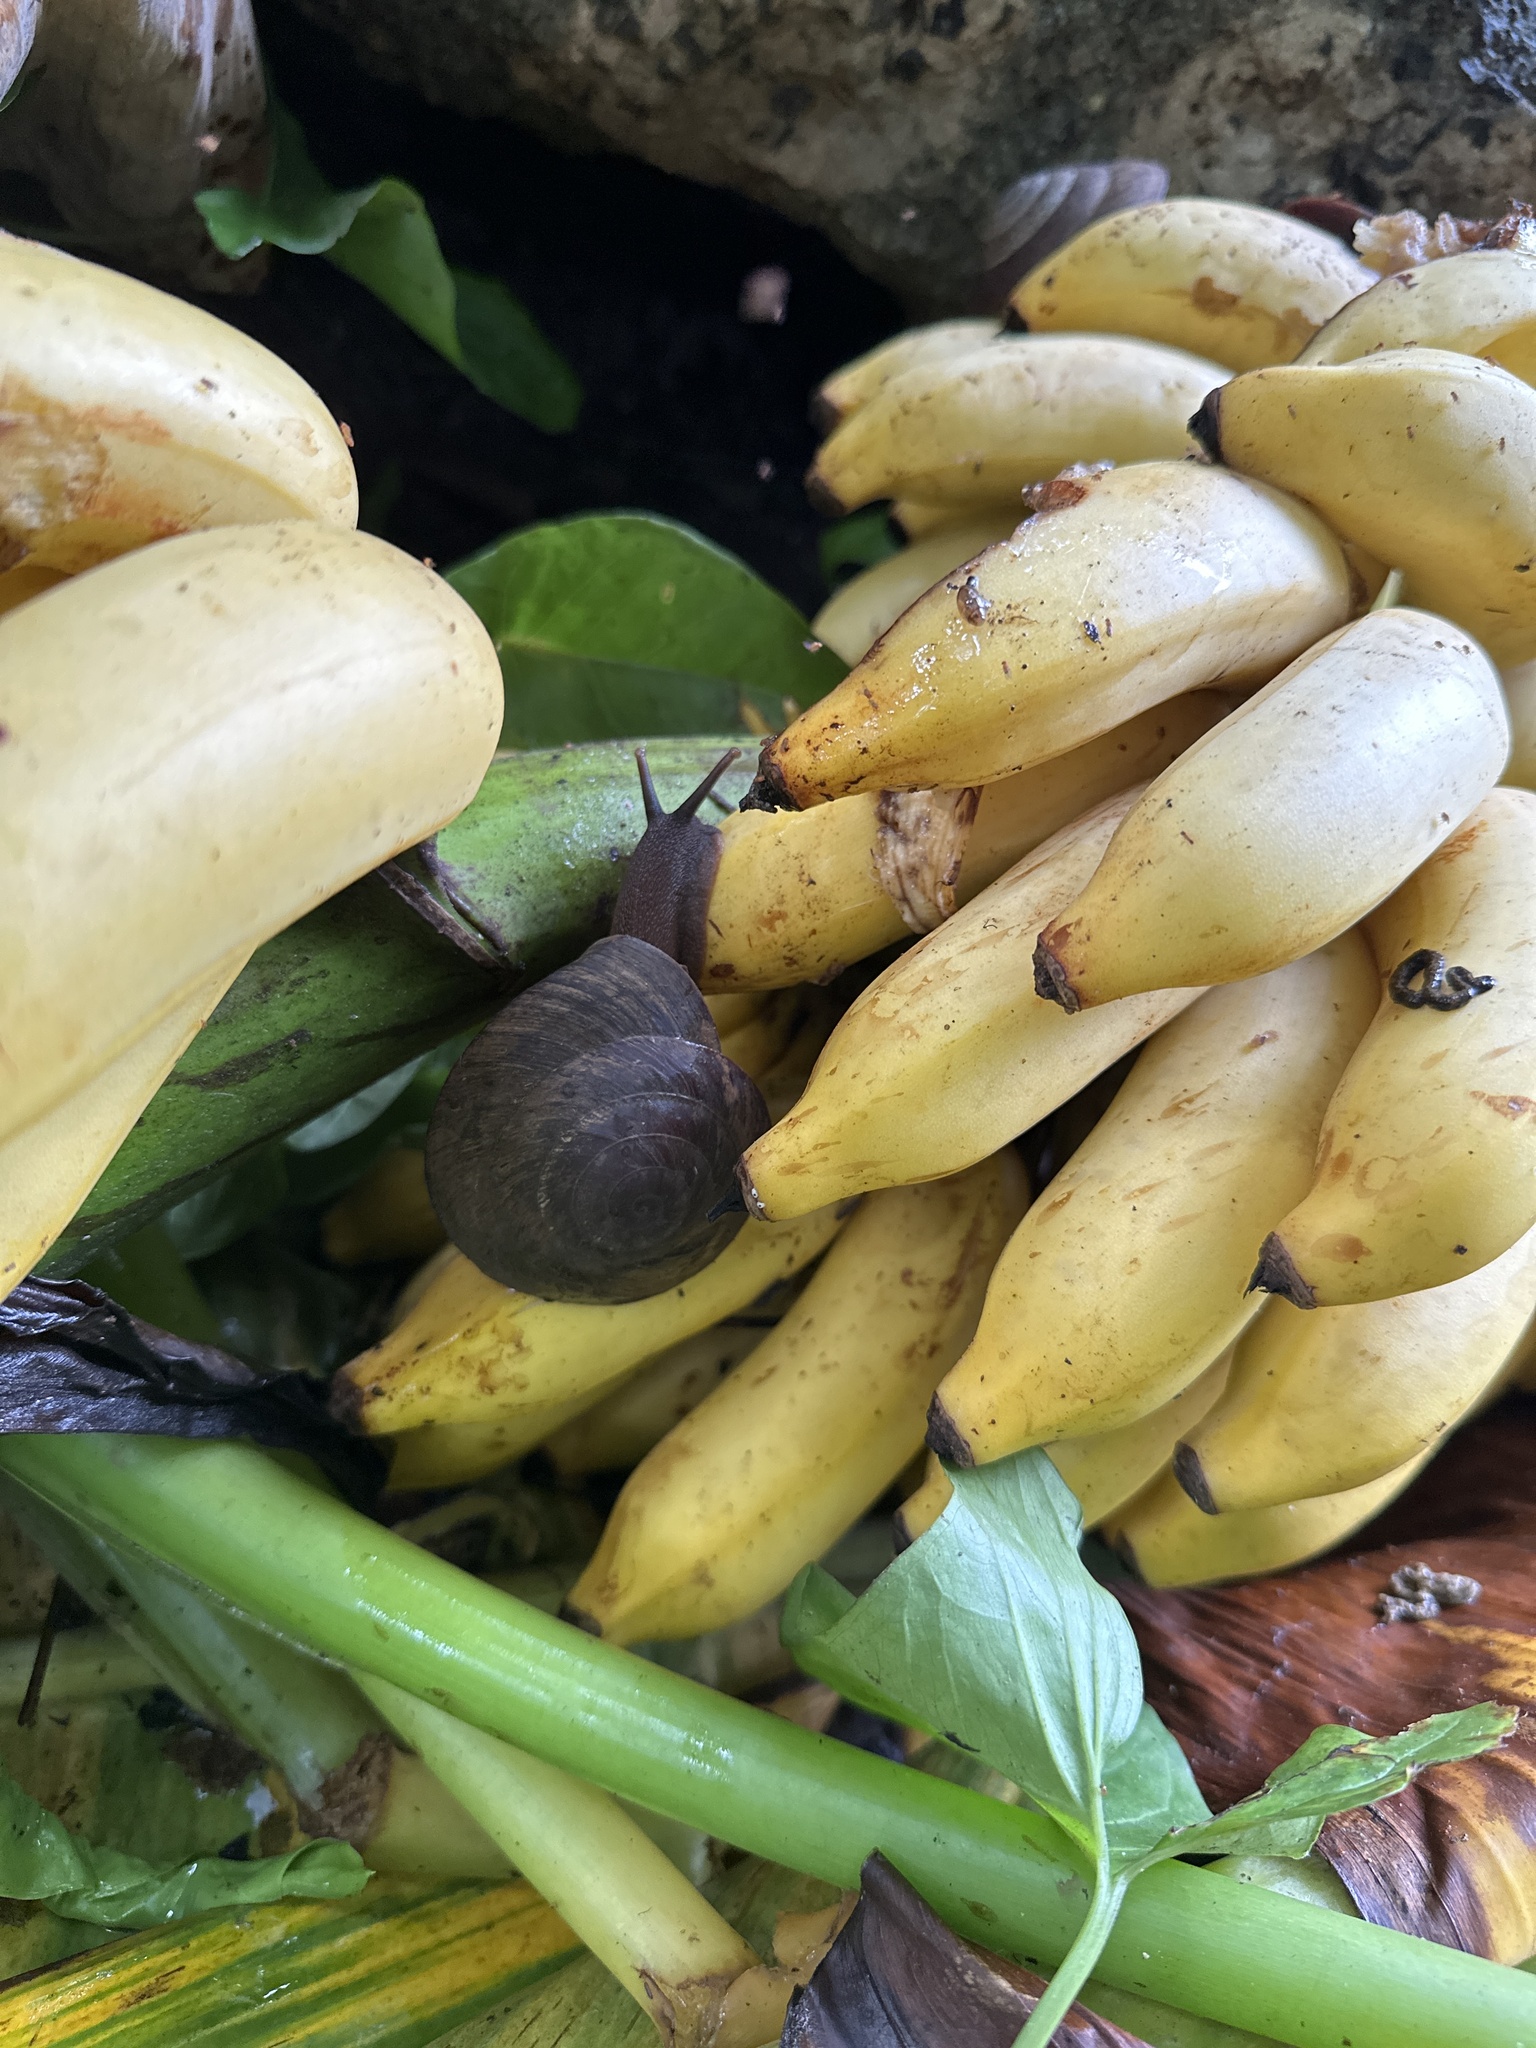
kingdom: Animalia
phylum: Mollusca
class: Gastropoda
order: Stylommatophora
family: Solaropsidae
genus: Caracolus
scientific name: Caracolus carocolla
